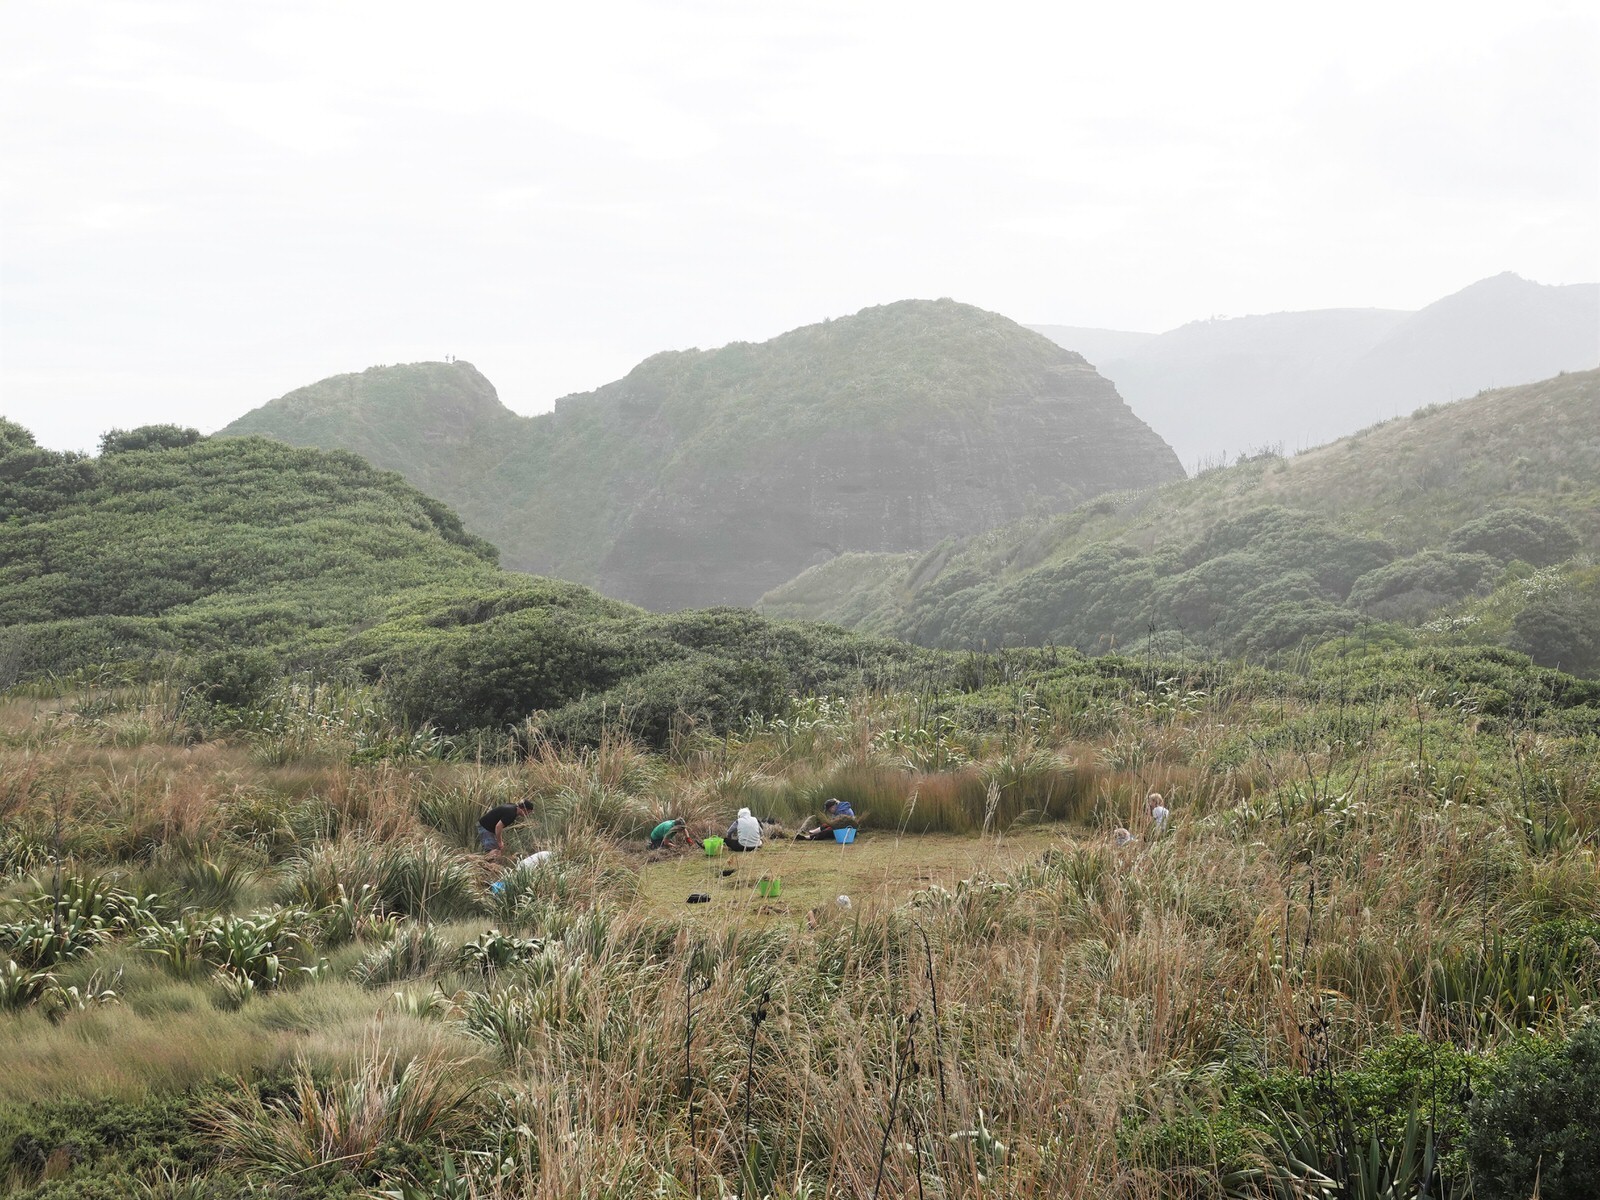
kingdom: Plantae
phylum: Tracheophyta
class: Magnoliopsida
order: Lamiales
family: Plantaginaceae
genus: Plantago
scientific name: Plantago australis
